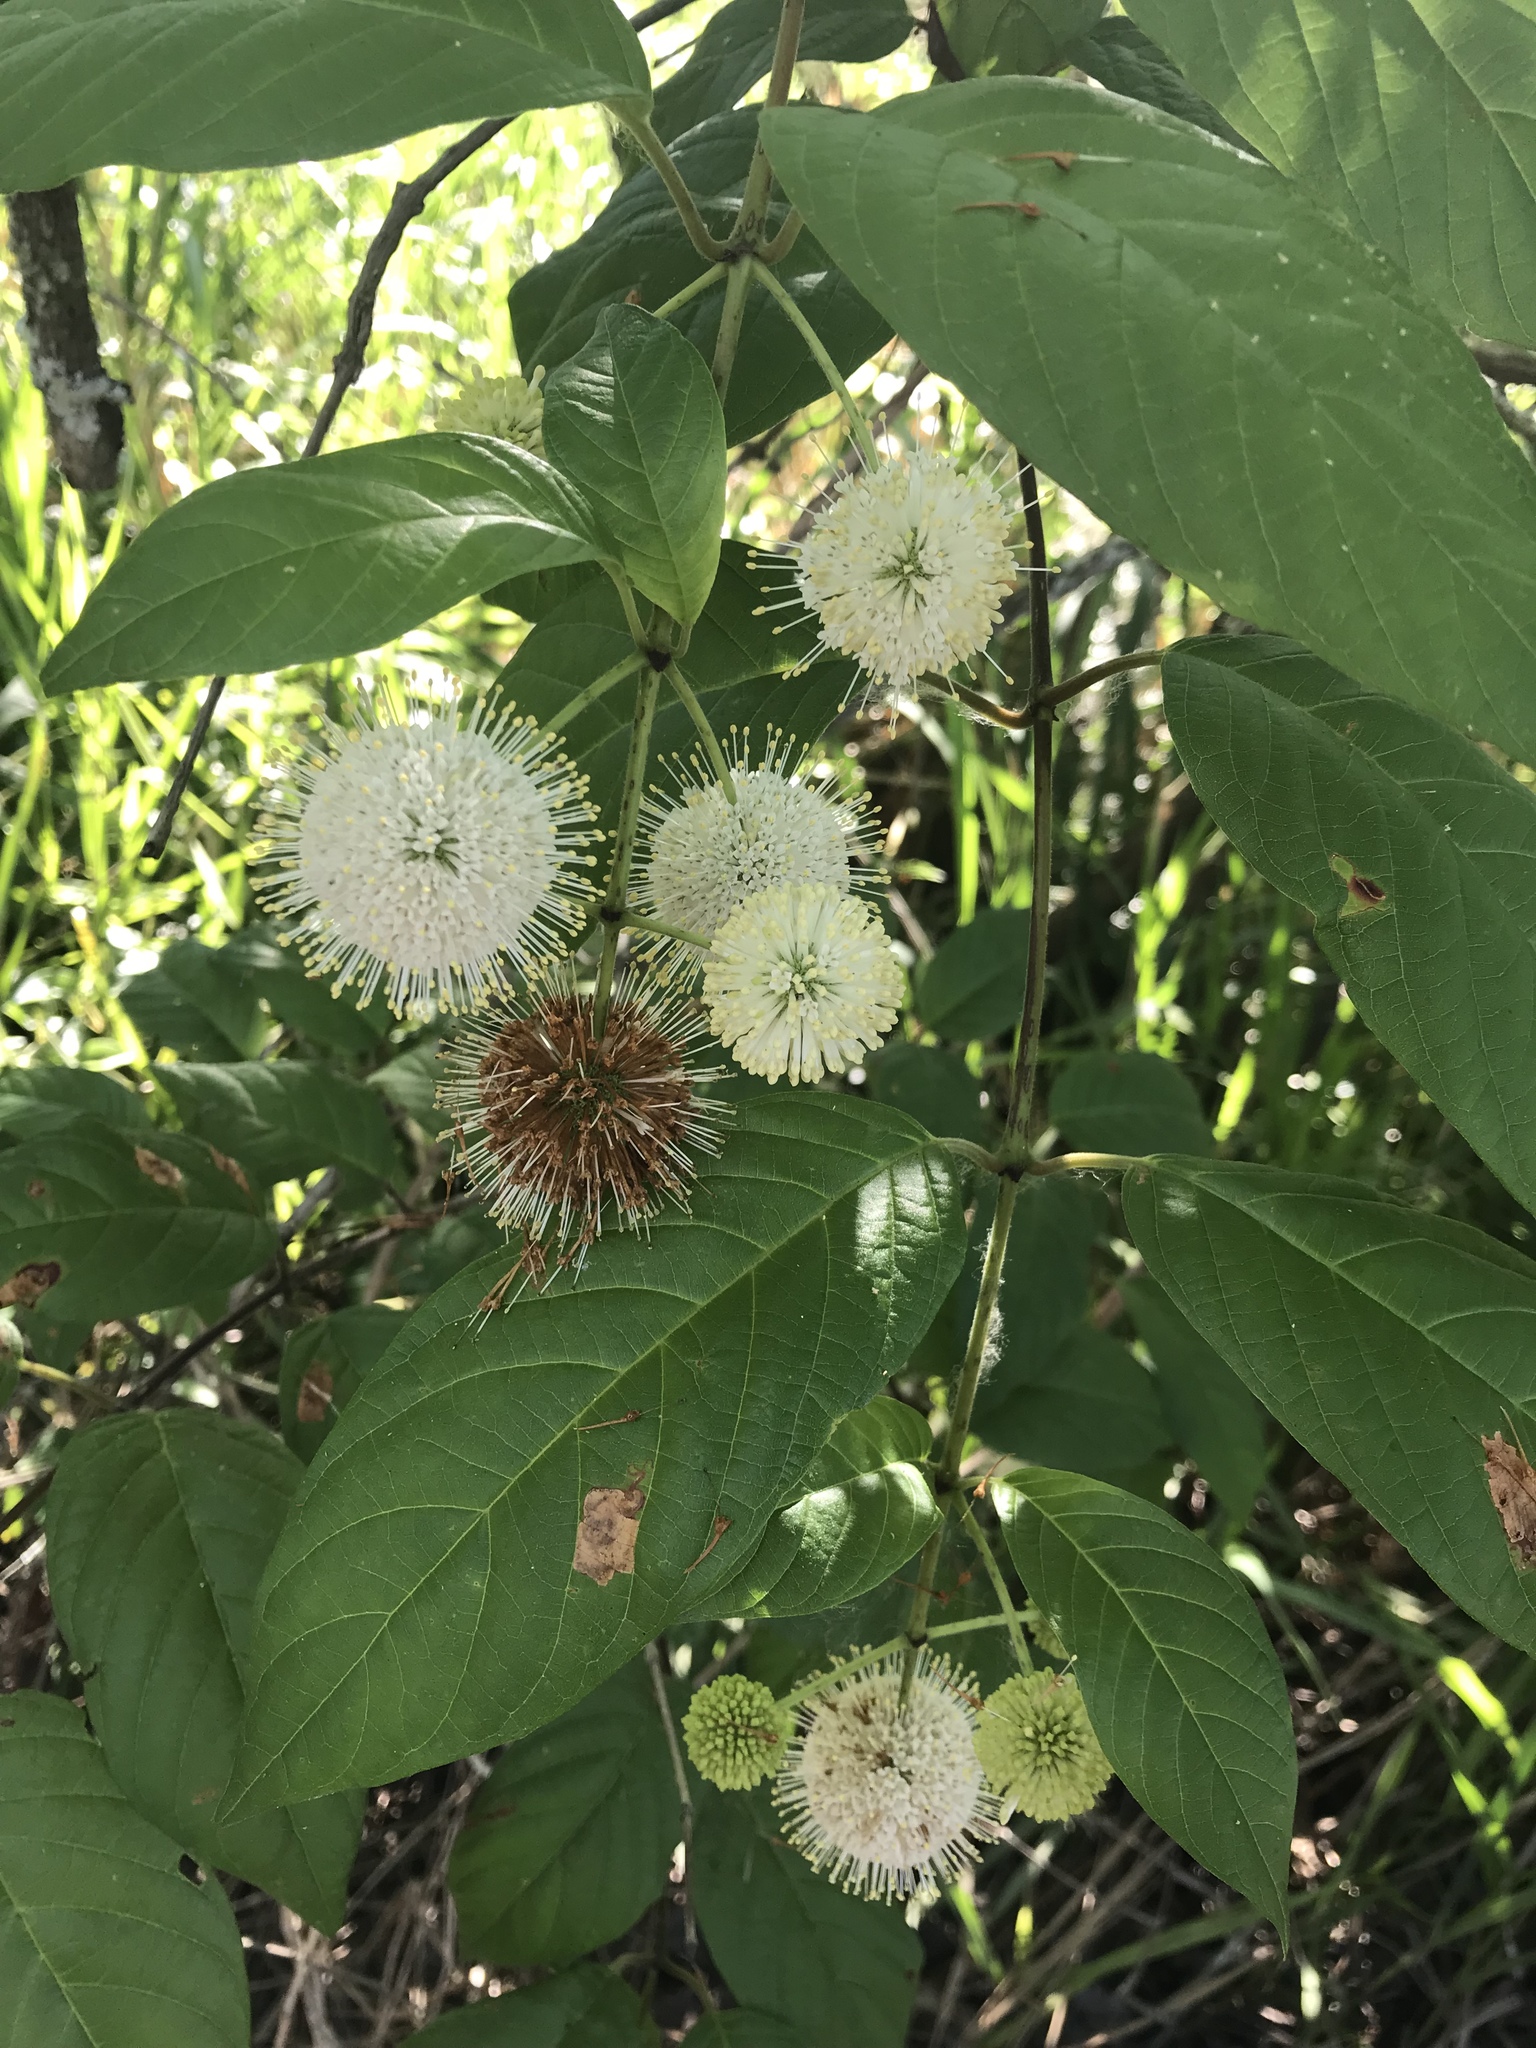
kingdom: Plantae
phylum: Tracheophyta
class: Magnoliopsida
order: Gentianales
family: Rubiaceae
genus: Cephalanthus
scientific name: Cephalanthus occidentalis
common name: Button-willow
